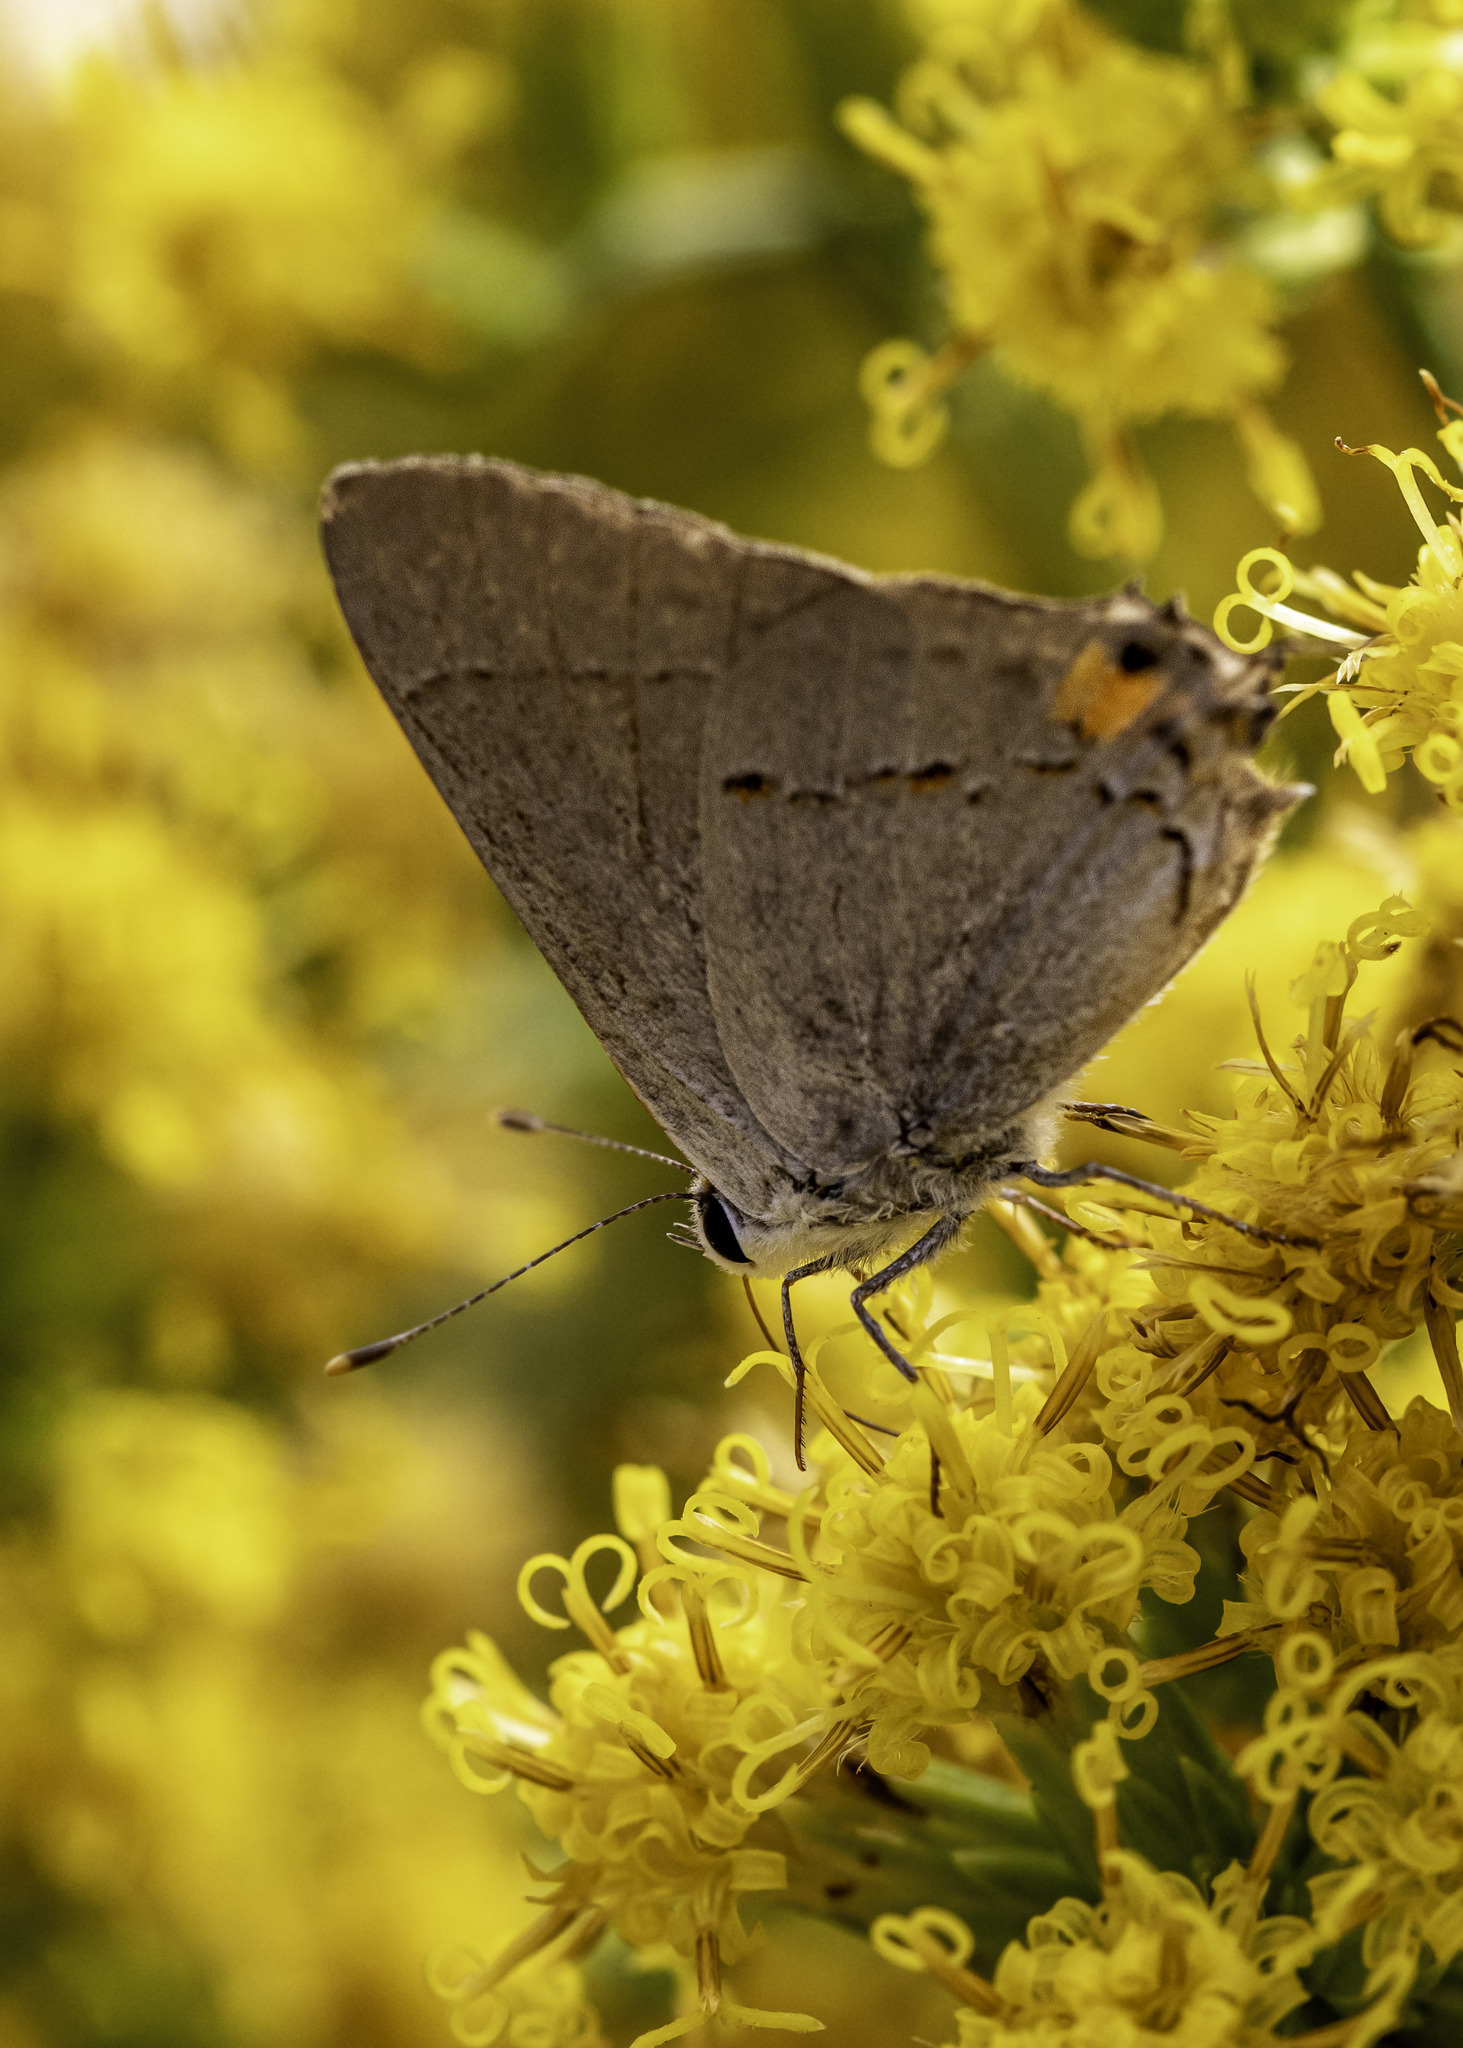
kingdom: Animalia
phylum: Arthropoda
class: Insecta
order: Lepidoptera
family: Lycaenidae
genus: Strymon
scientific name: Strymon melinus
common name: Gray hairstreak
